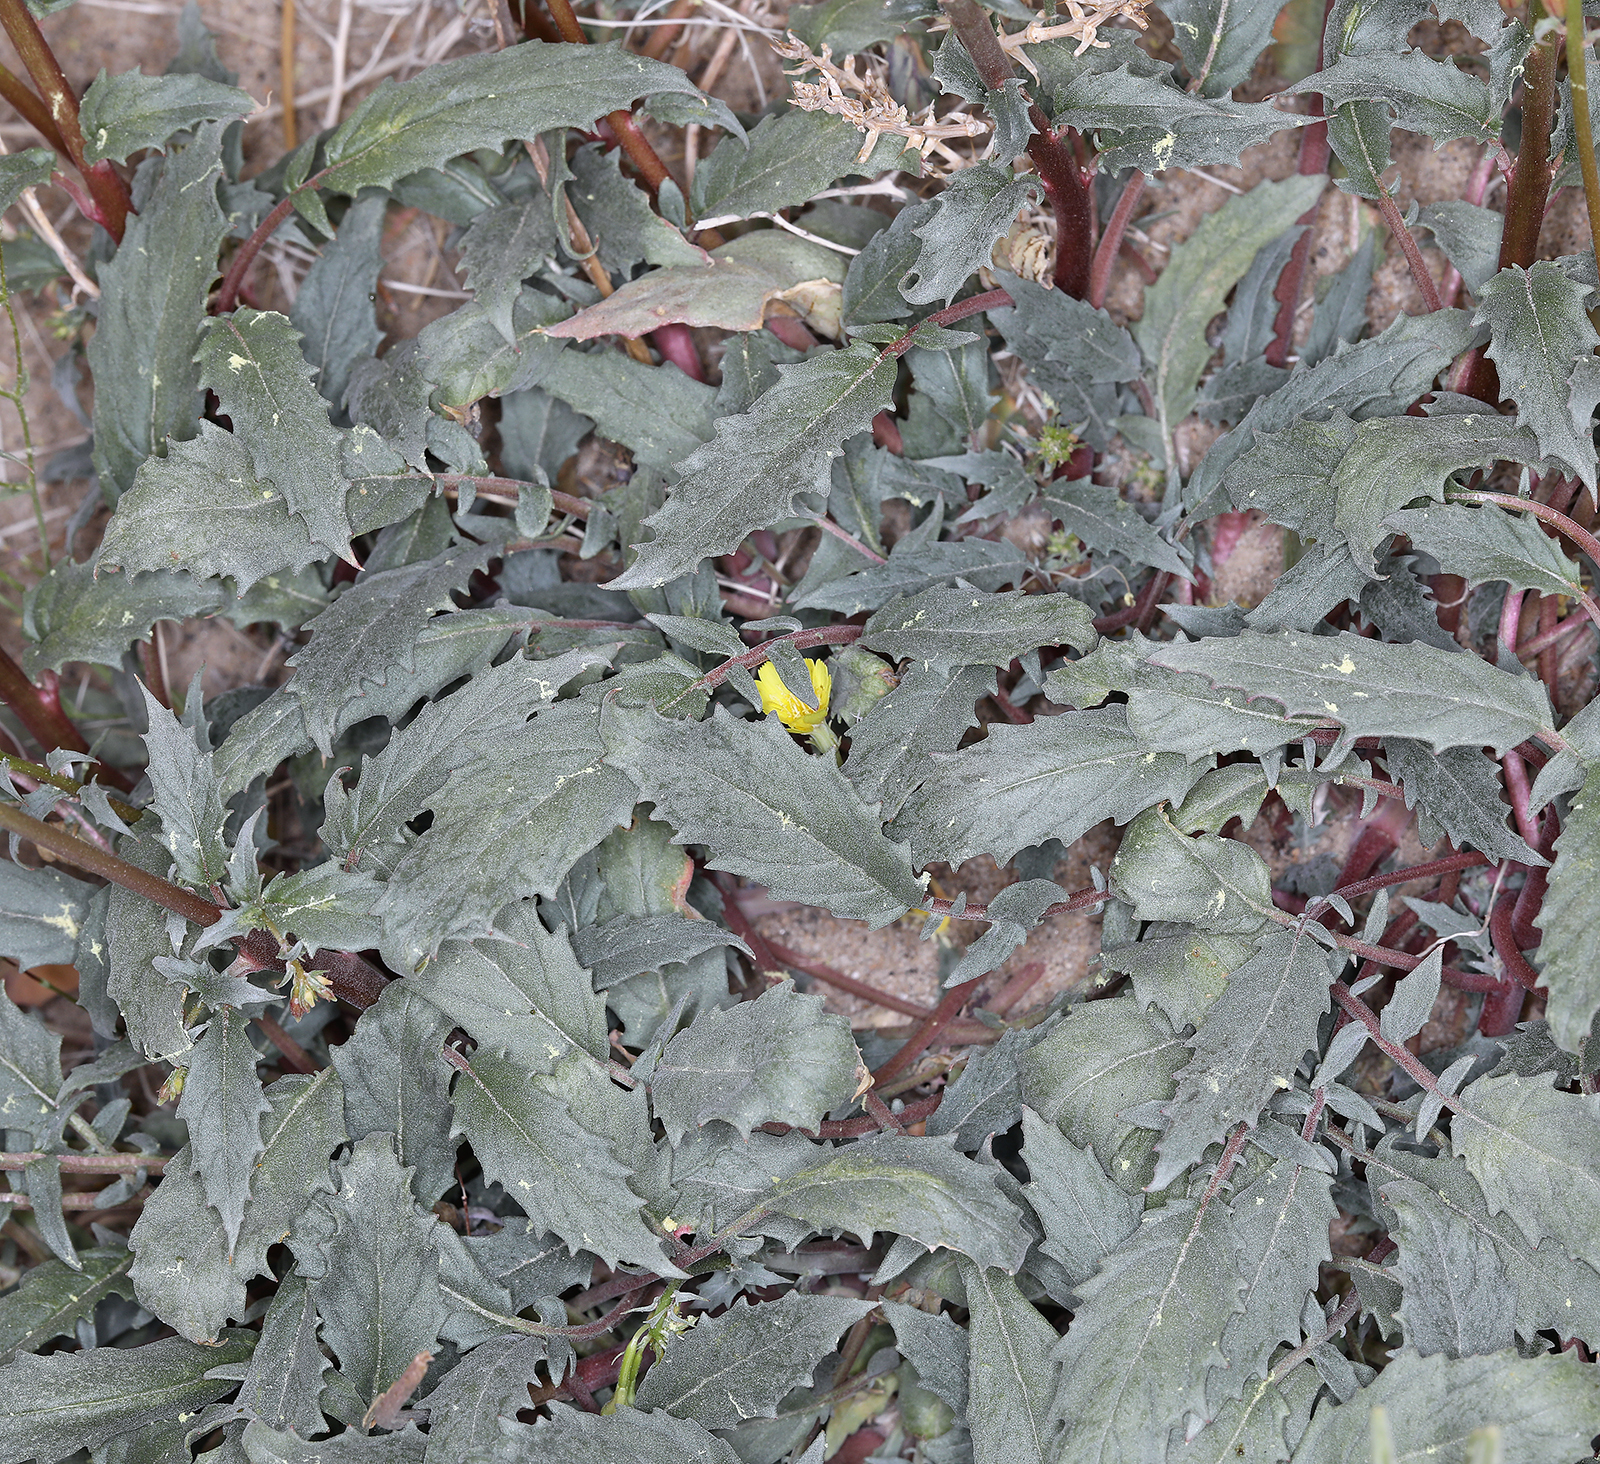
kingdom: Plantae
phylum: Tracheophyta
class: Magnoliopsida
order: Myrtales
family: Onagraceae
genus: Chylismia
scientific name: Chylismia claviformis
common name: Browneyes
